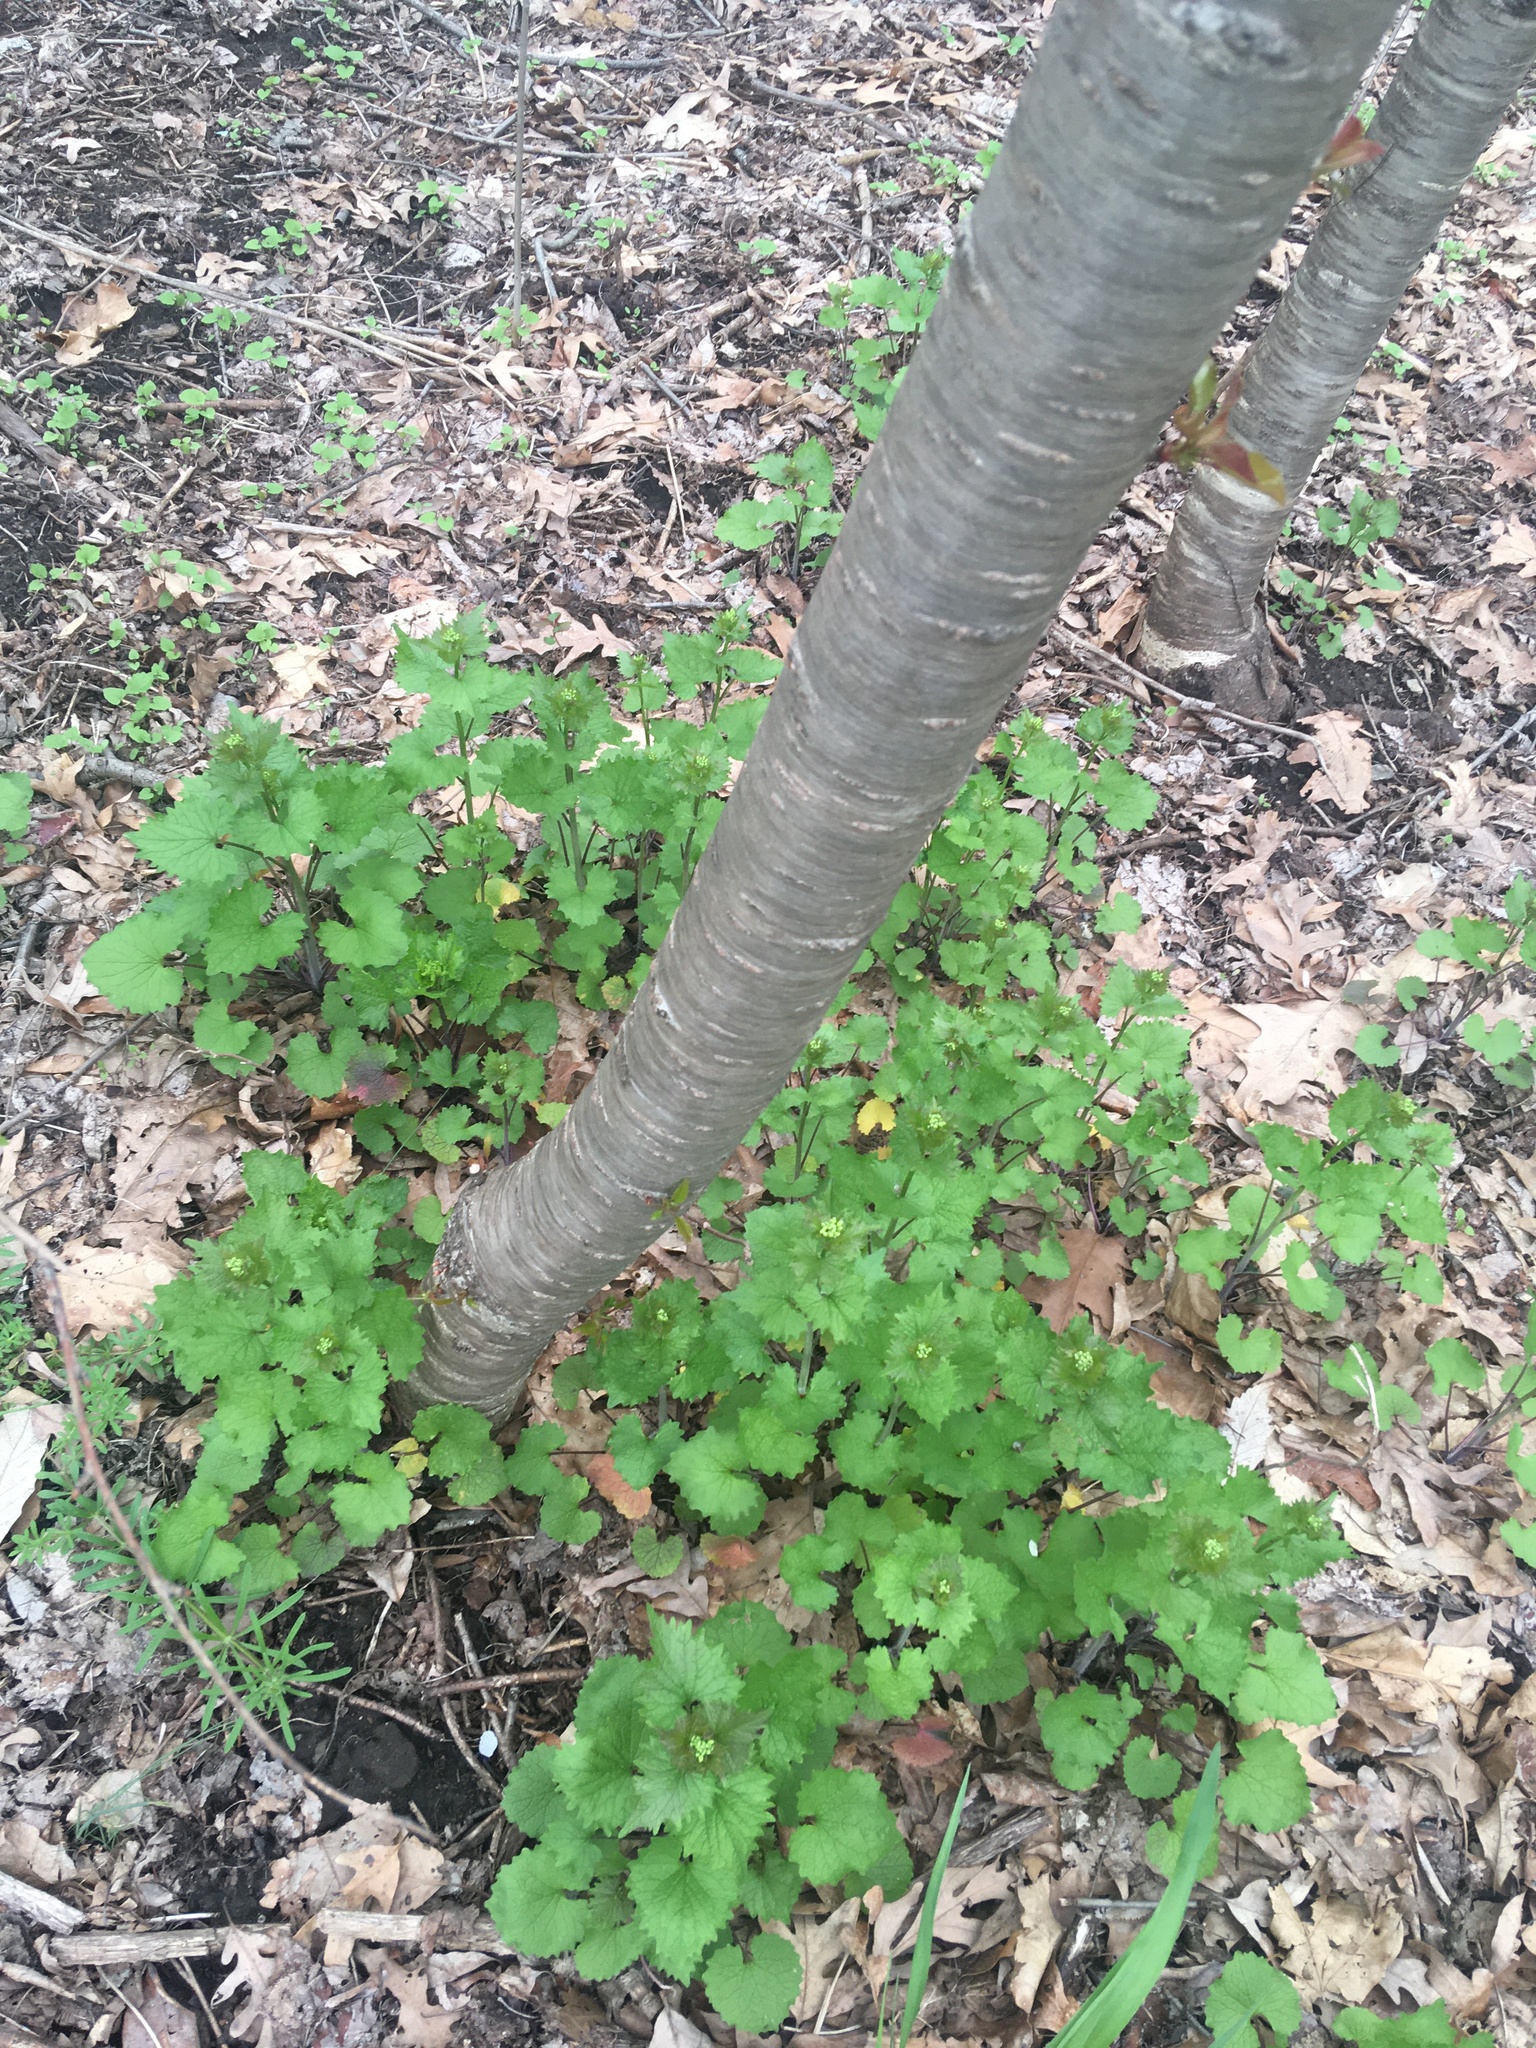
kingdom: Plantae
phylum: Tracheophyta
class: Magnoliopsida
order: Rosales
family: Rosaceae
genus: Prunus
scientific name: Prunus avium
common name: Sweet cherry
